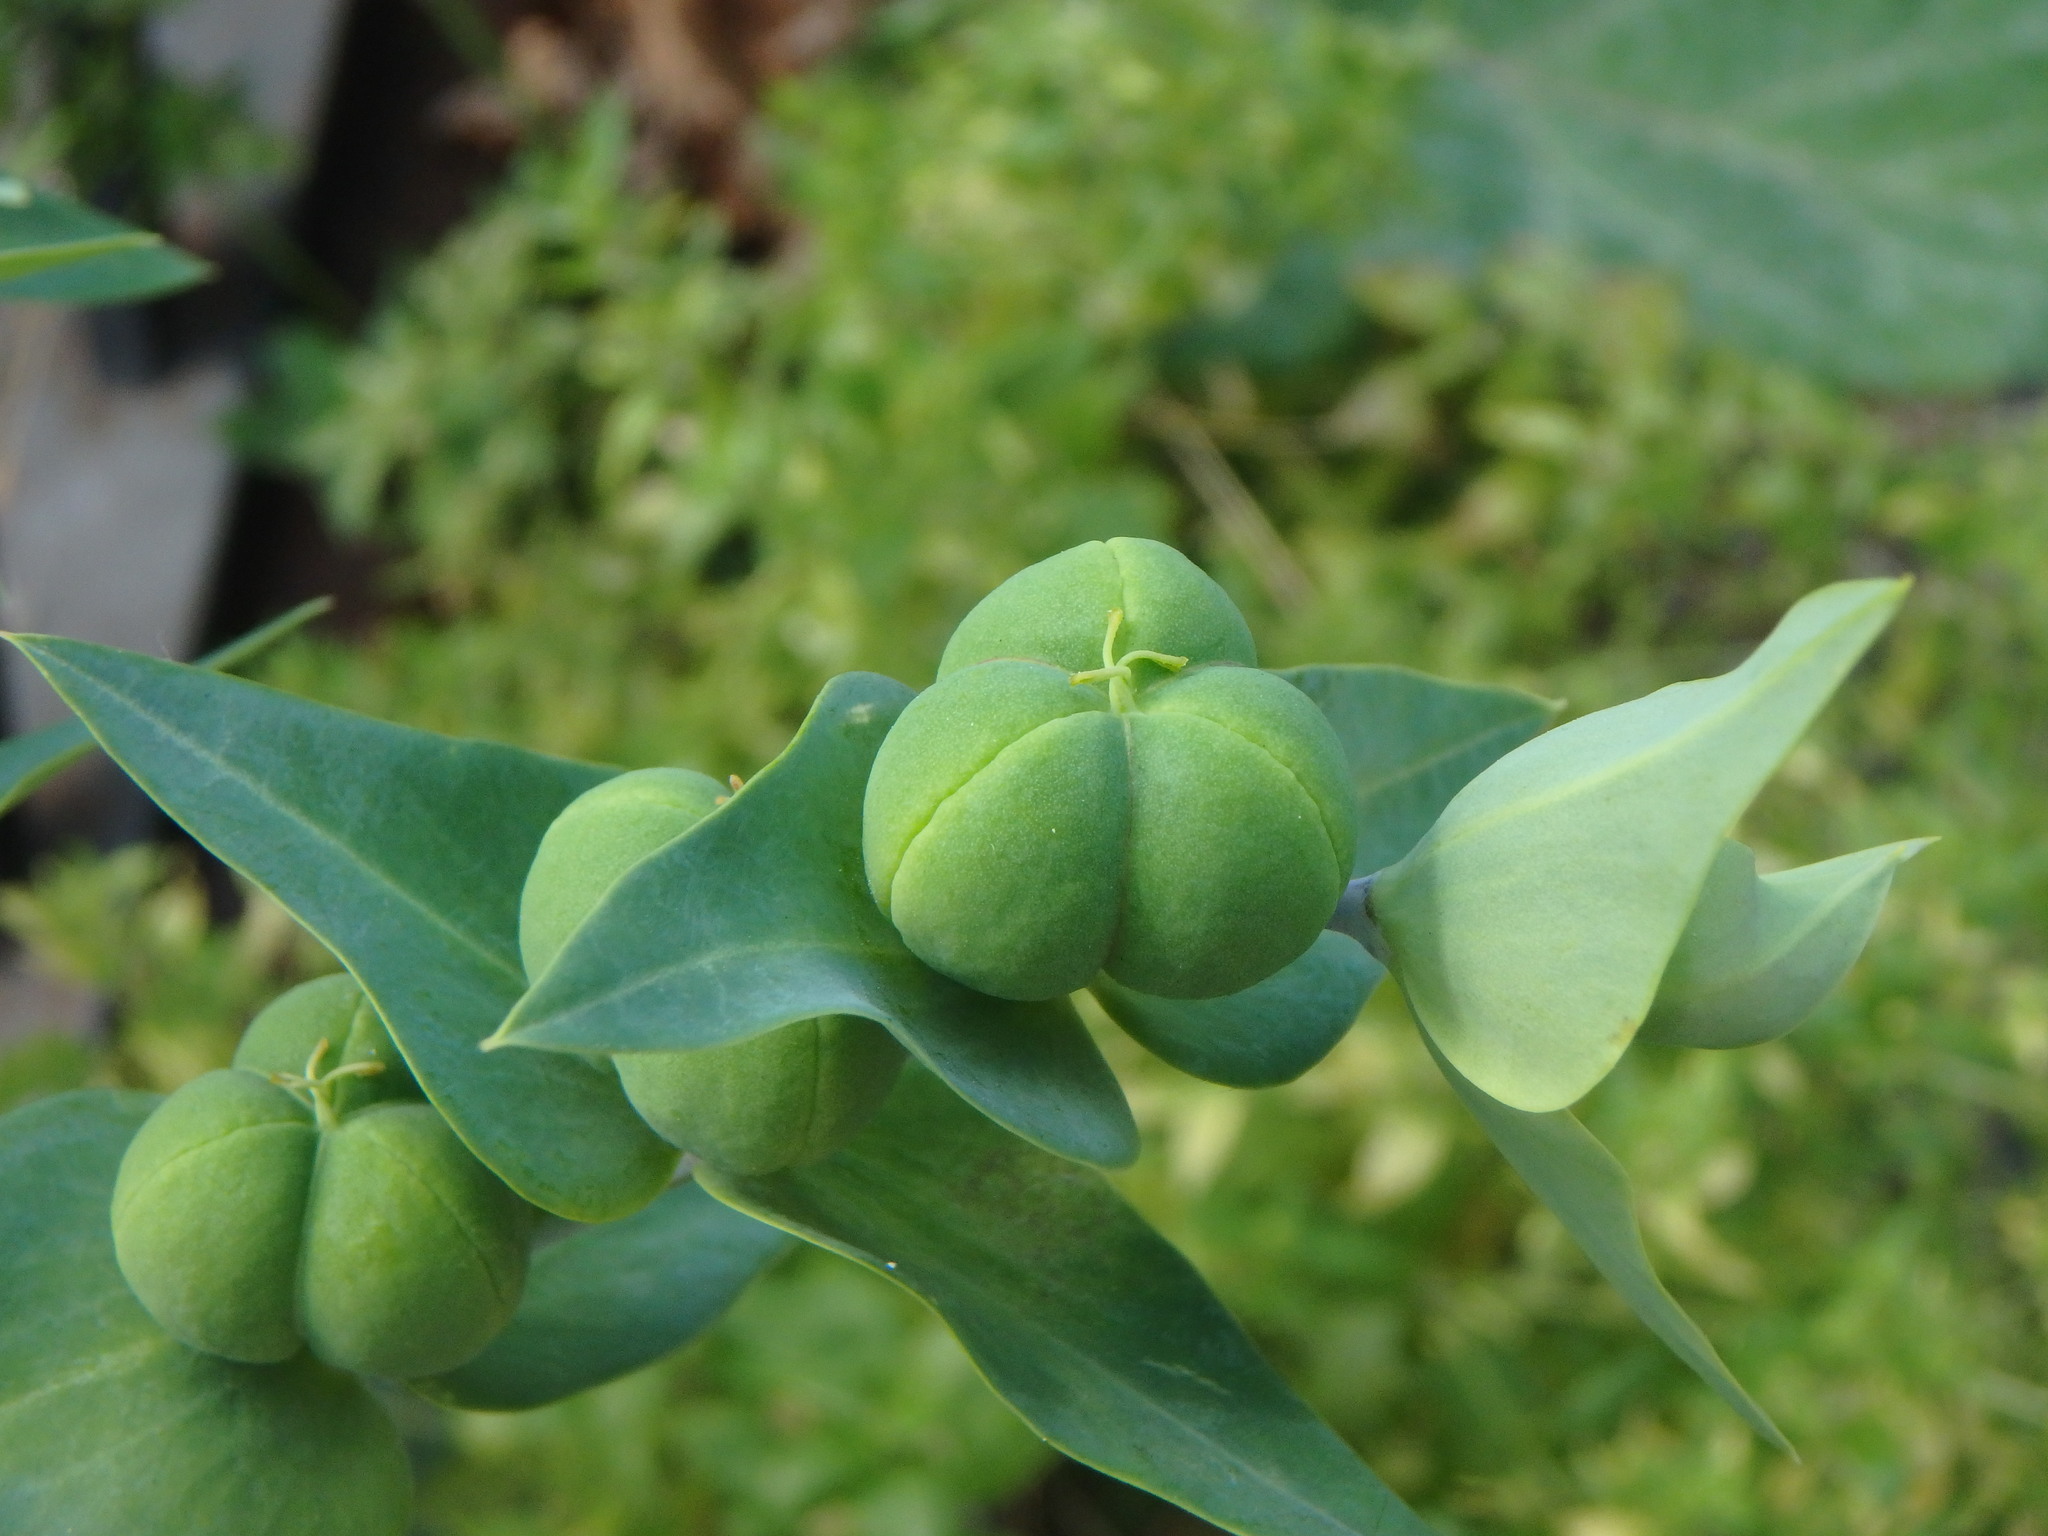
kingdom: Plantae
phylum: Tracheophyta
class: Magnoliopsida
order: Malpighiales
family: Euphorbiaceae
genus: Euphorbia
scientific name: Euphorbia lathyris
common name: Caper spurge
